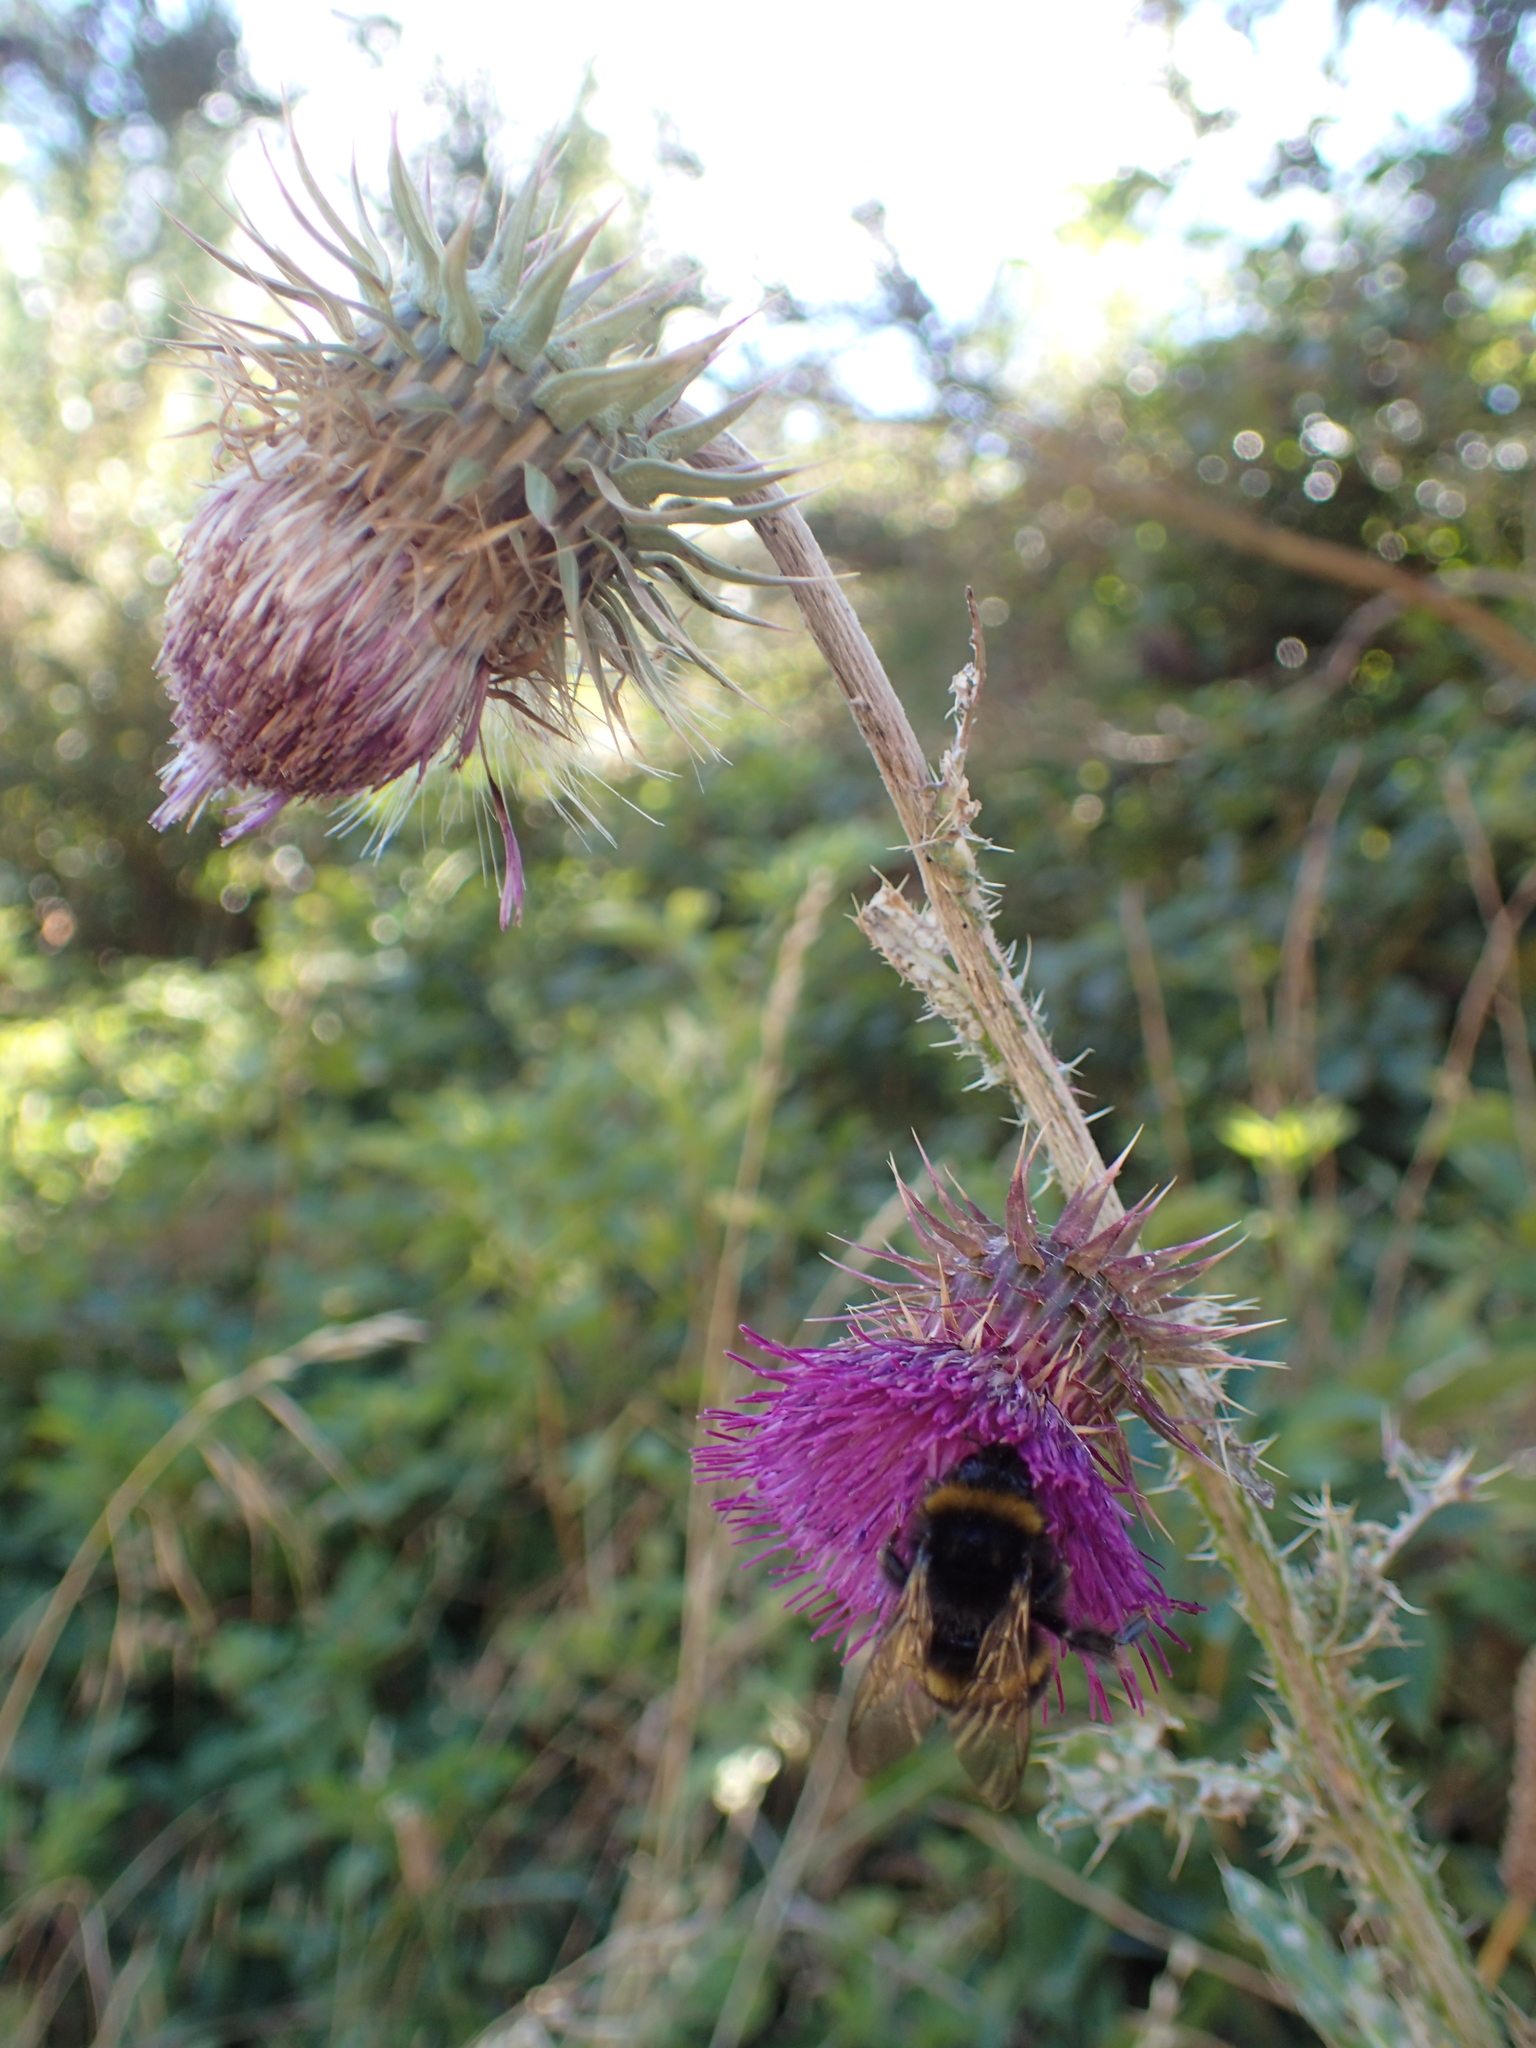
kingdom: Plantae
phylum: Tracheophyta
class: Magnoliopsida
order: Asterales
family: Asteraceae
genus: Carduus
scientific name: Carduus nutans
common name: Musk thistle
